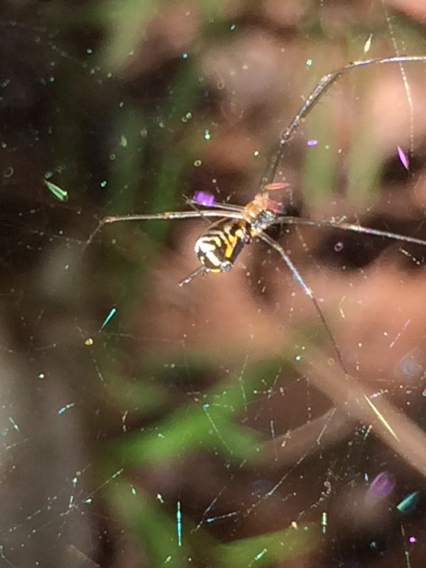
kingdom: Animalia
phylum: Arthropoda
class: Arachnida
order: Araneae
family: Linyphiidae
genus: Neriene
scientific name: Neriene radiata
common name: Filmy dome spider
